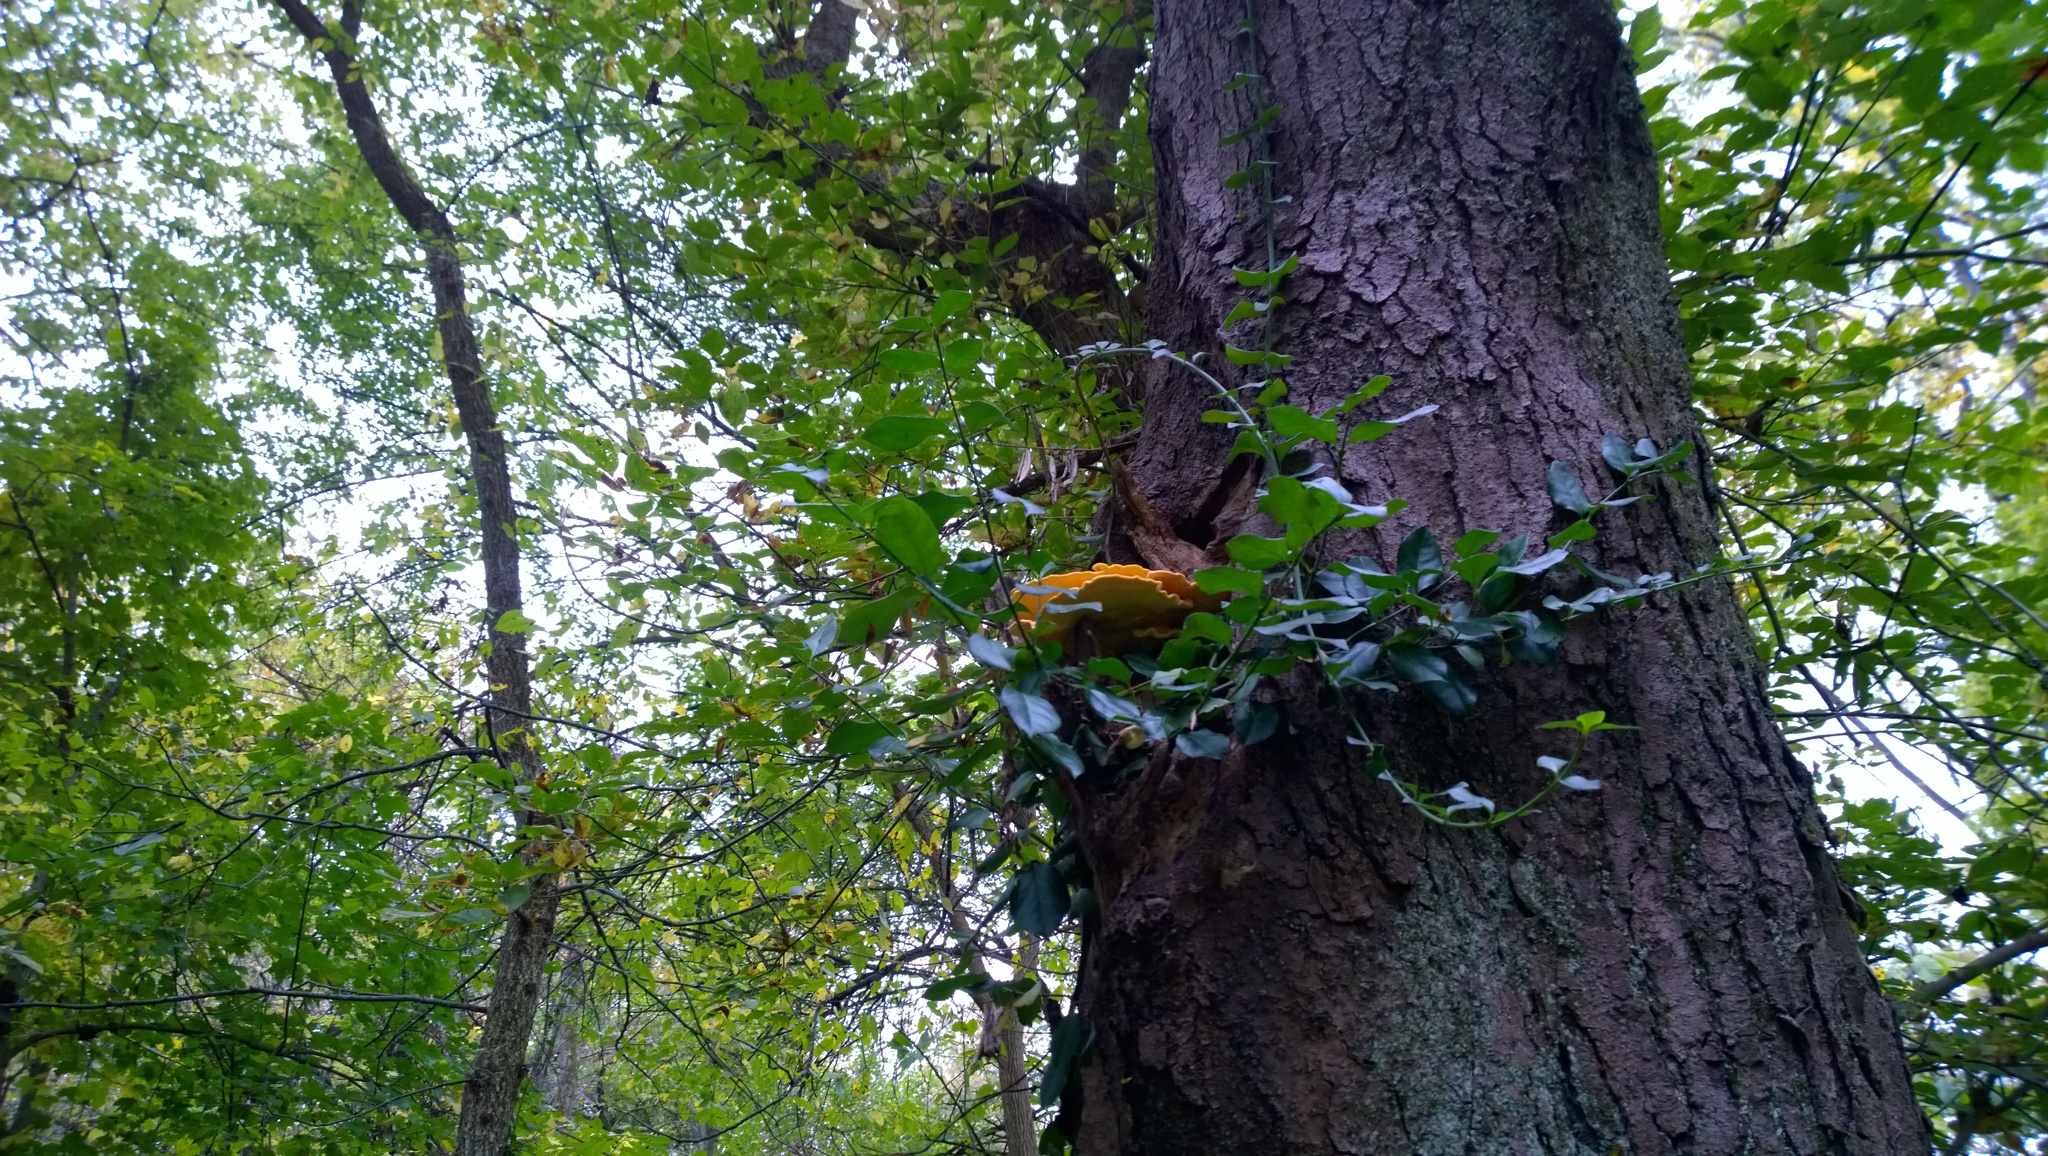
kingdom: Fungi
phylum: Basidiomycota
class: Agaricomycetes
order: Polyporales
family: Laetiporaceae
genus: Laetiporus
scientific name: Laetiporus sulphureus
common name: Chicken of the woods
